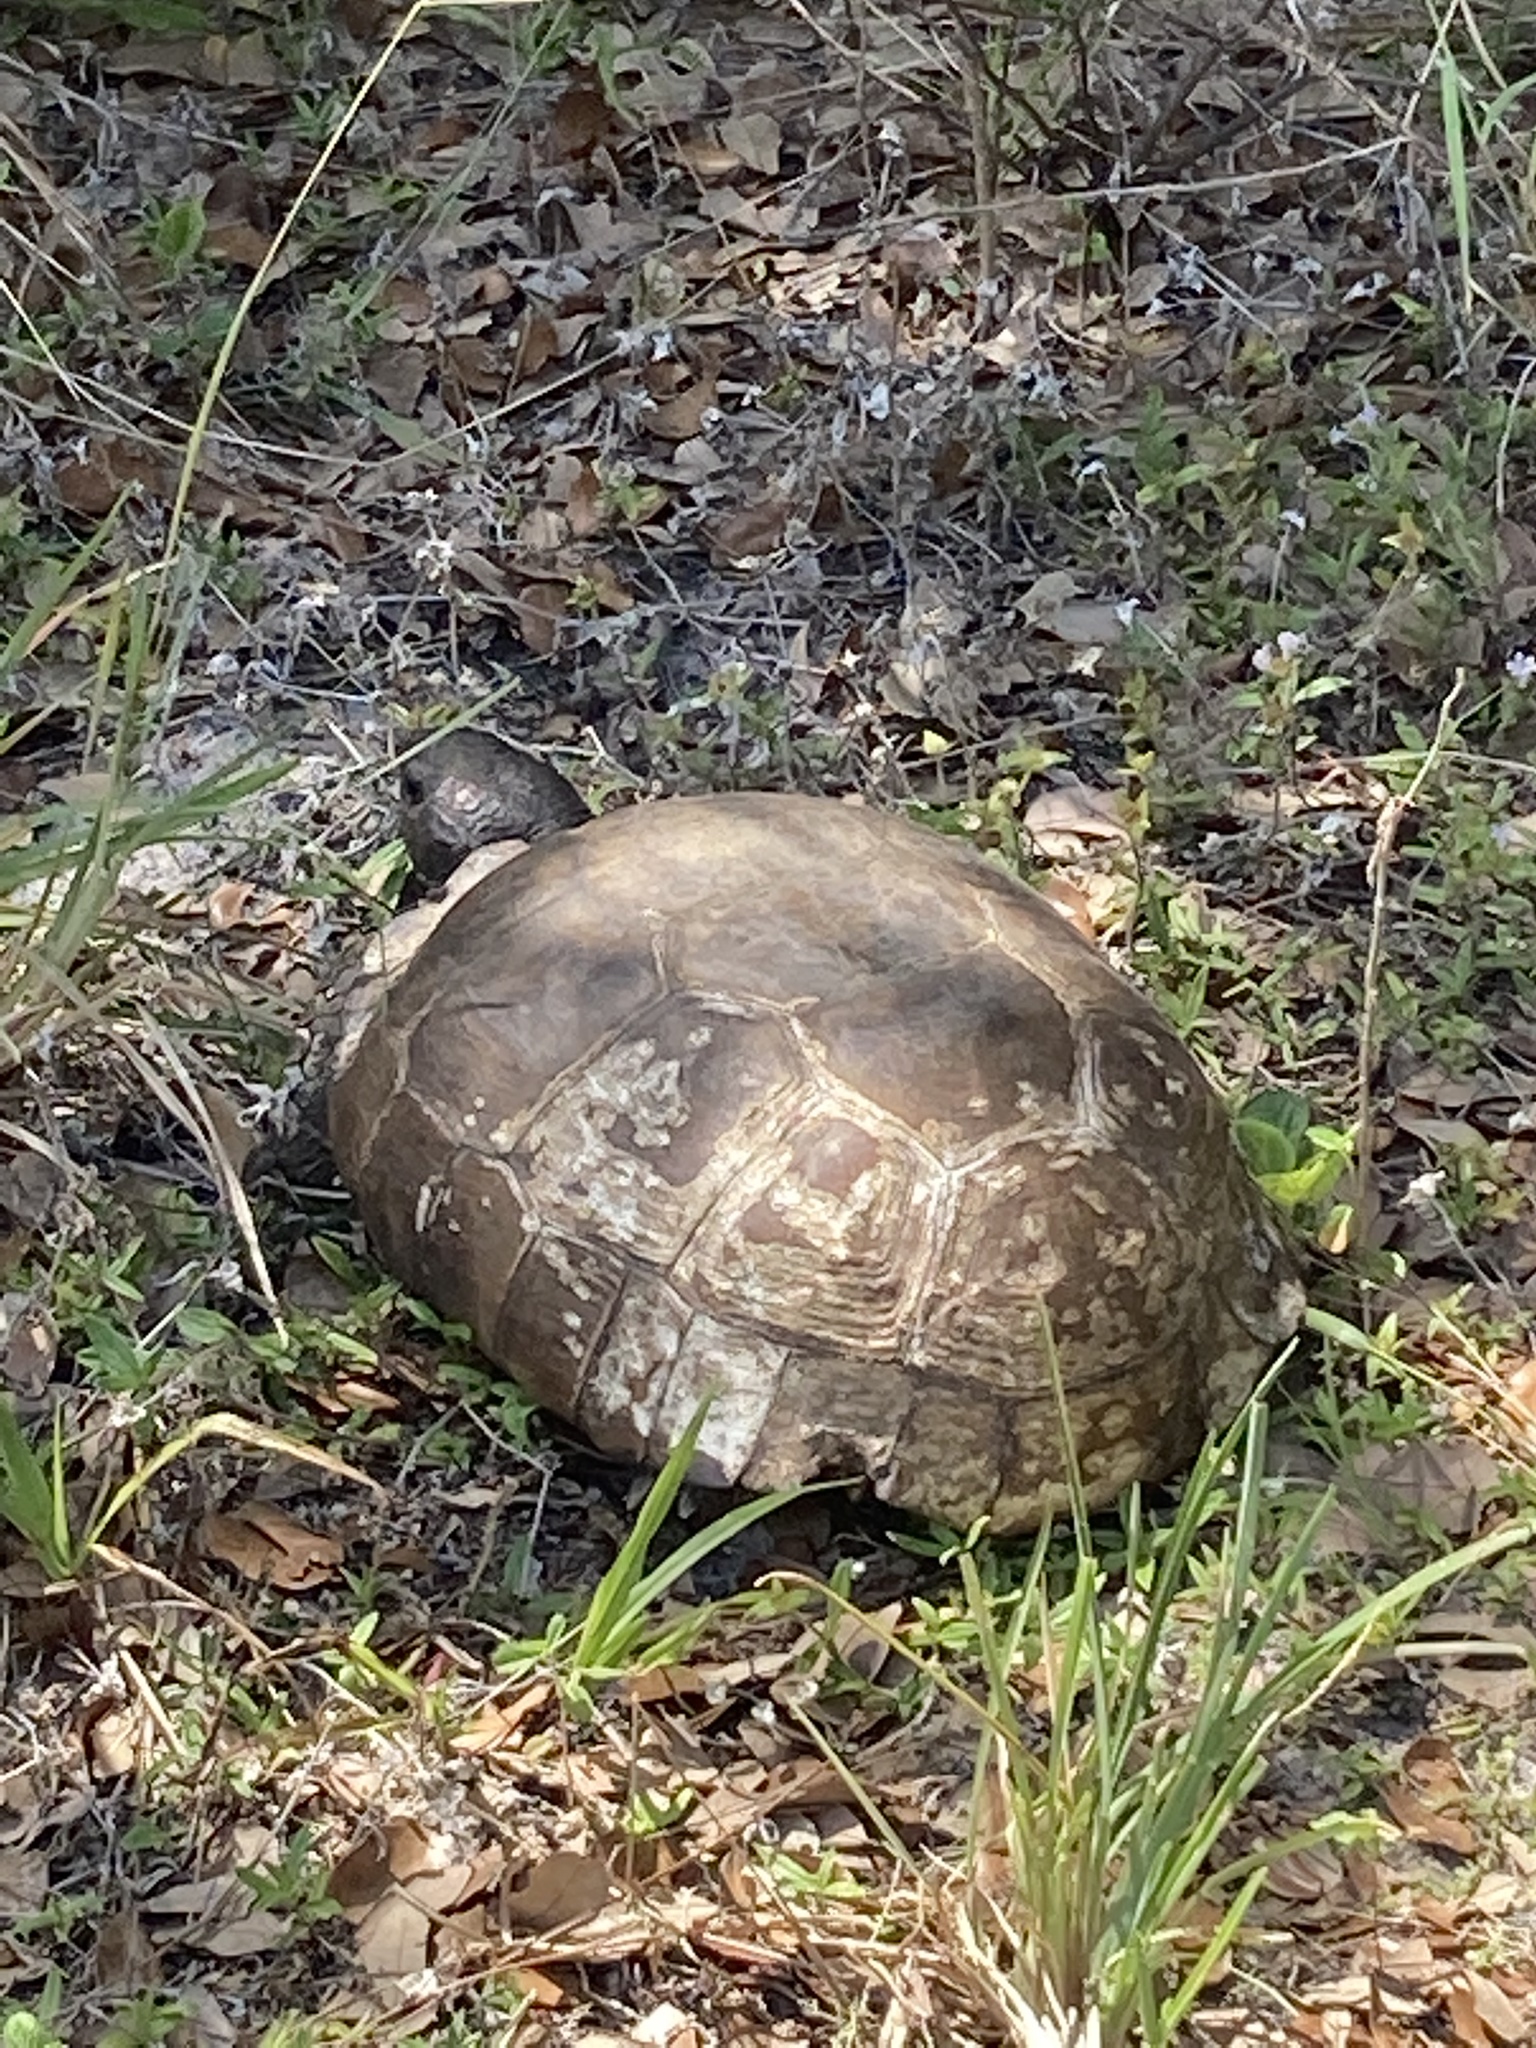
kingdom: Animalia
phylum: Chordata
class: Testudines
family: Testudinidae
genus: Gopherus
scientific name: Gopherus polyphemus
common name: Florida gopher tortoise
